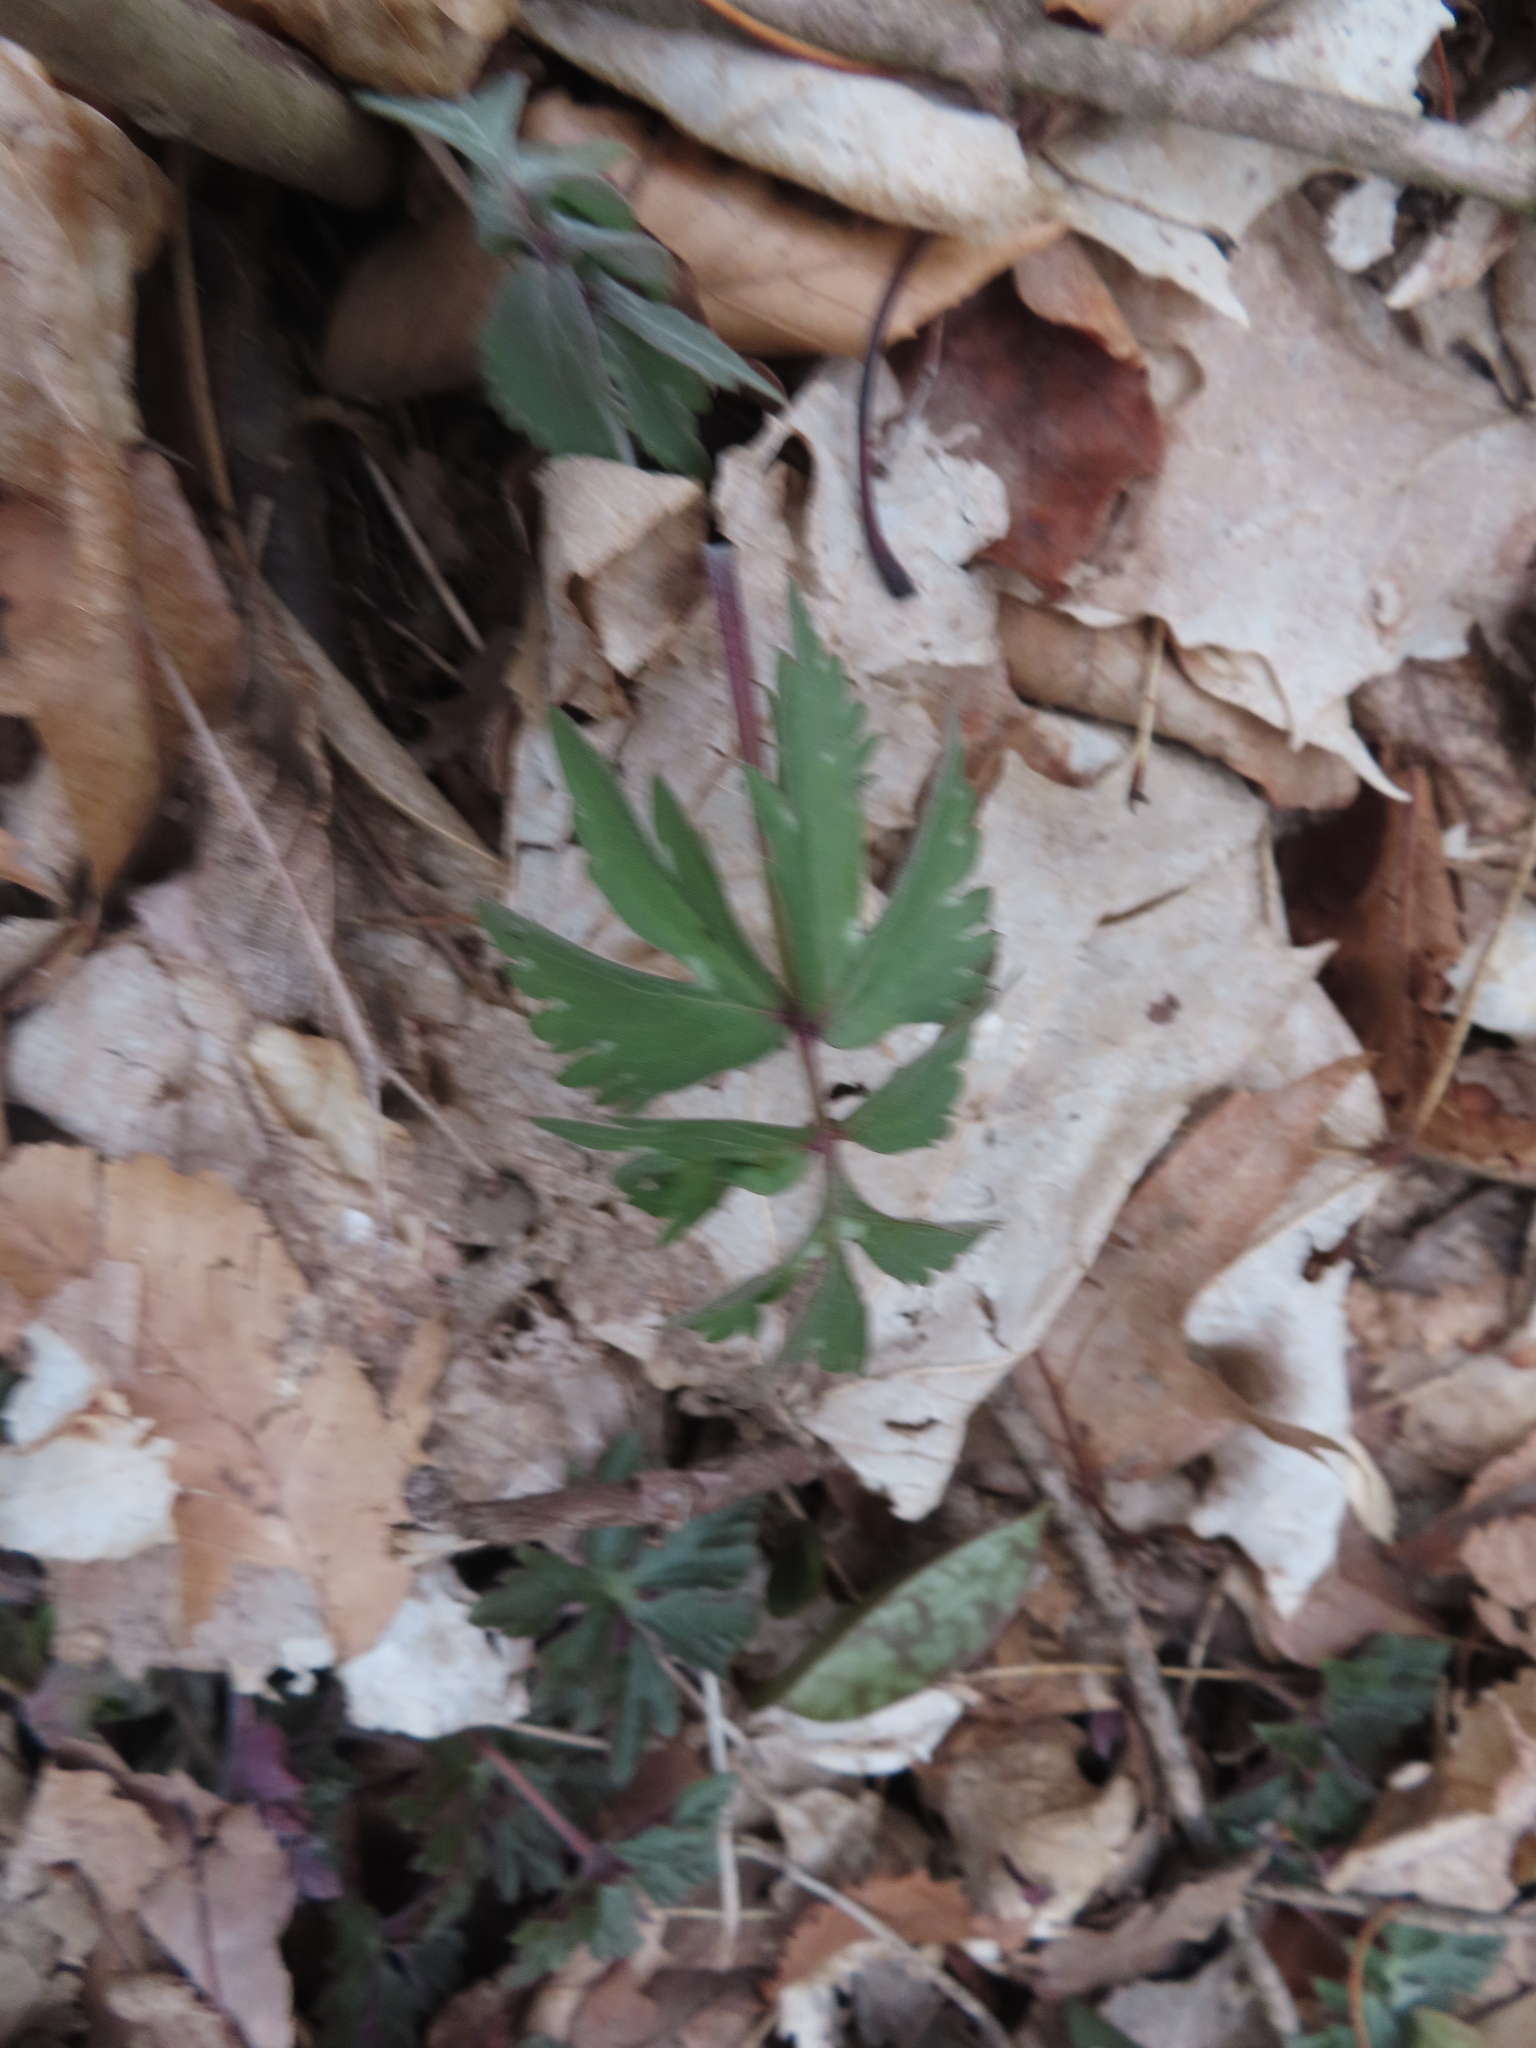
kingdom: Plantae
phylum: Tracheophyta
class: Magnoliopsida
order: Boraginales
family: Hydrophyllaceae
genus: Hydrophyllum
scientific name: Hydrophyllum virginianum
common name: Virginia waterleaf
